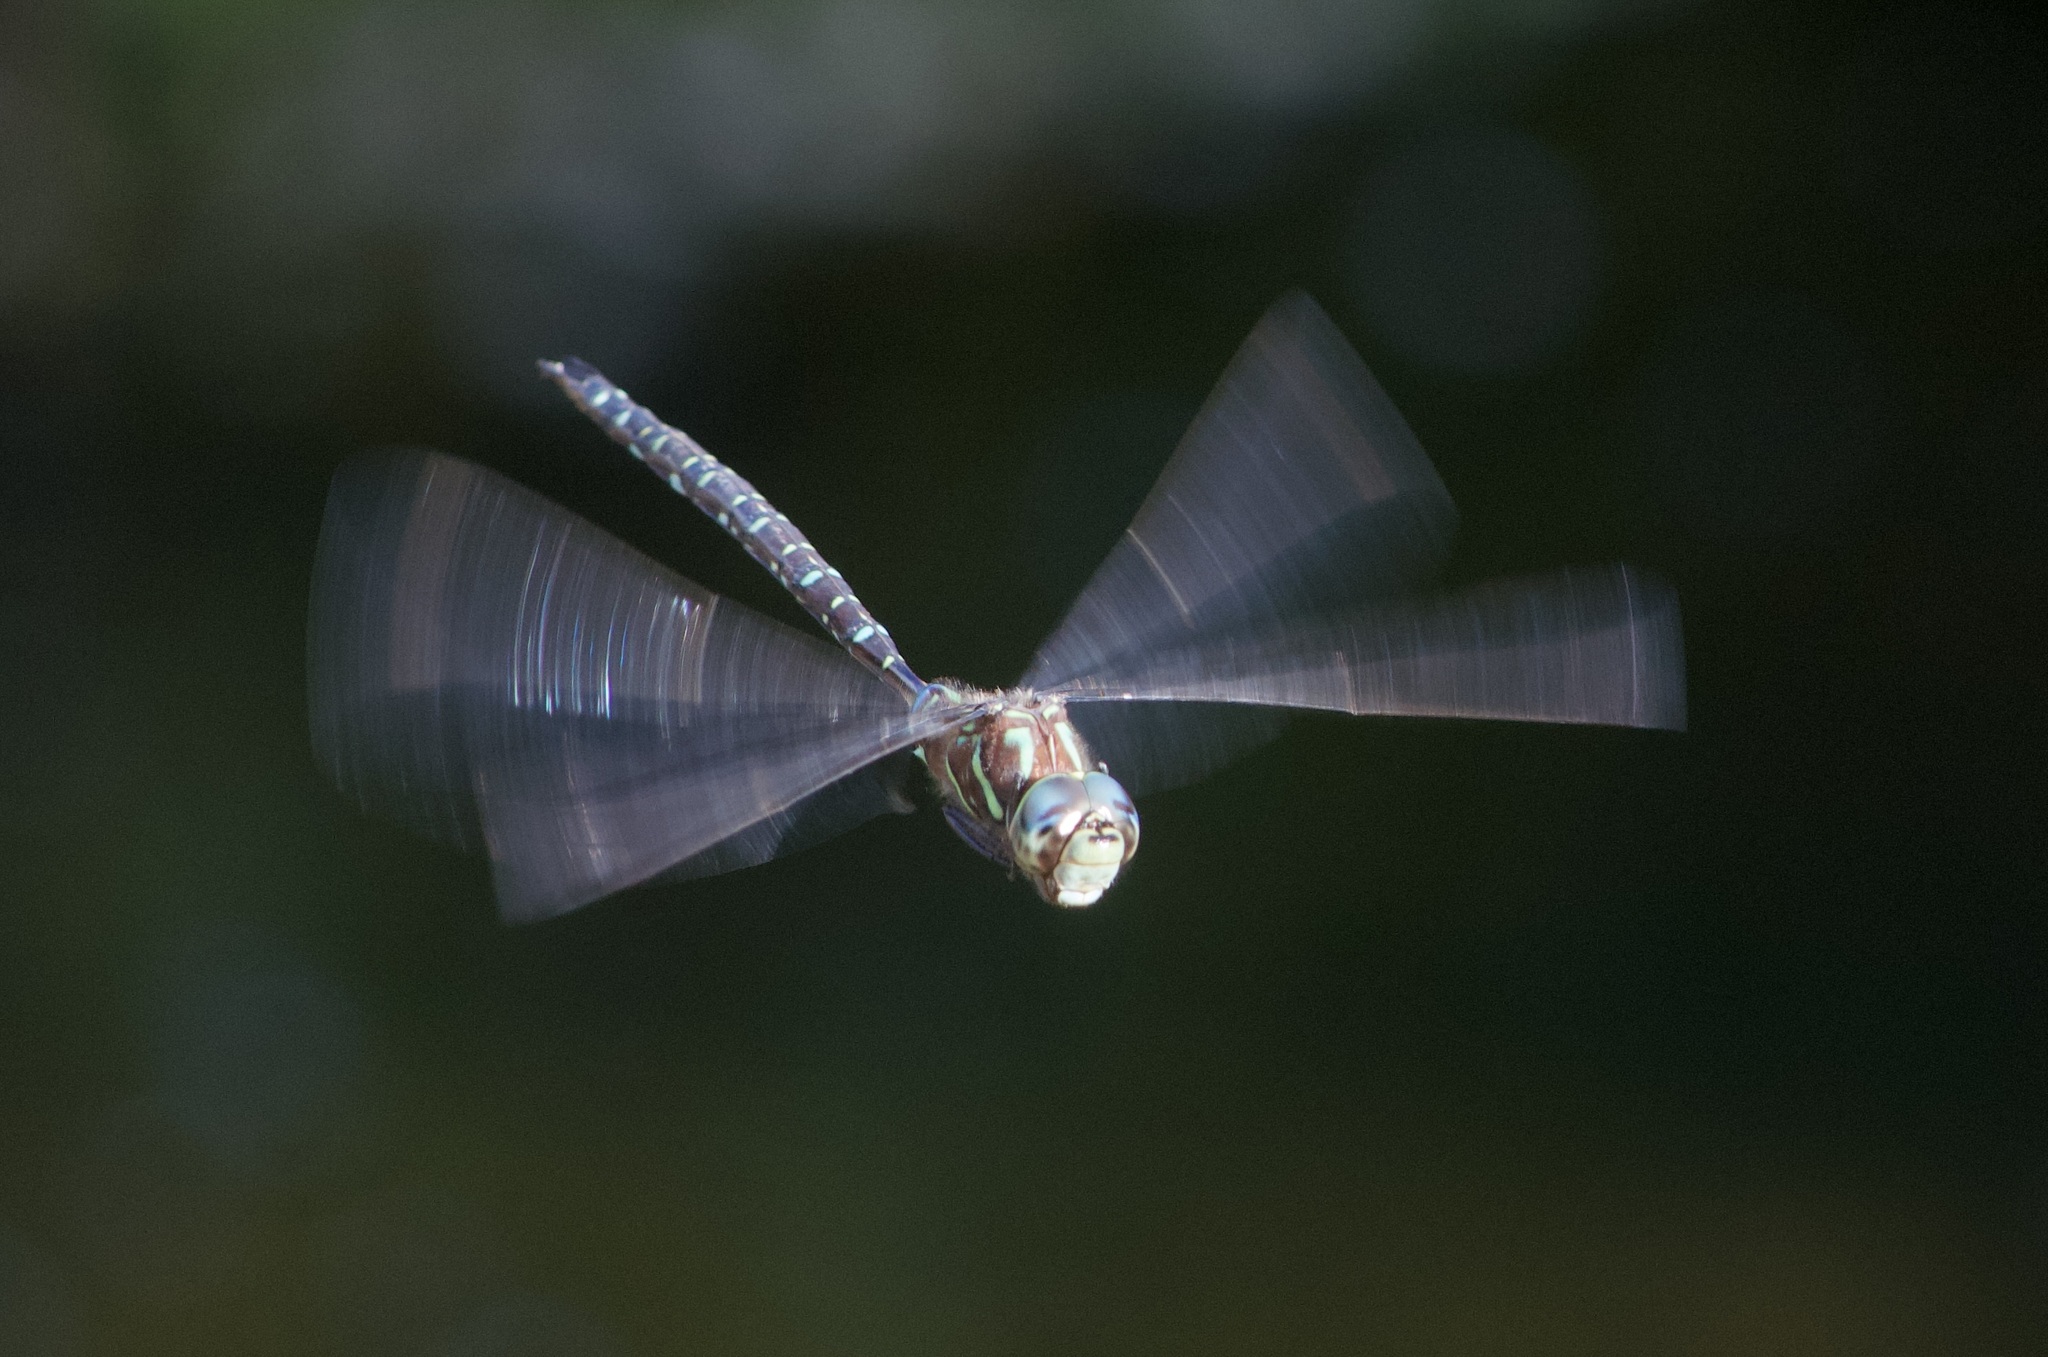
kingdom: Animalia
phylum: Arthropoda
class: Insecta
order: Odonata
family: Aeshnidae
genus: Aeshna
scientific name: Aeshna umbrosa
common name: Shadow darner
